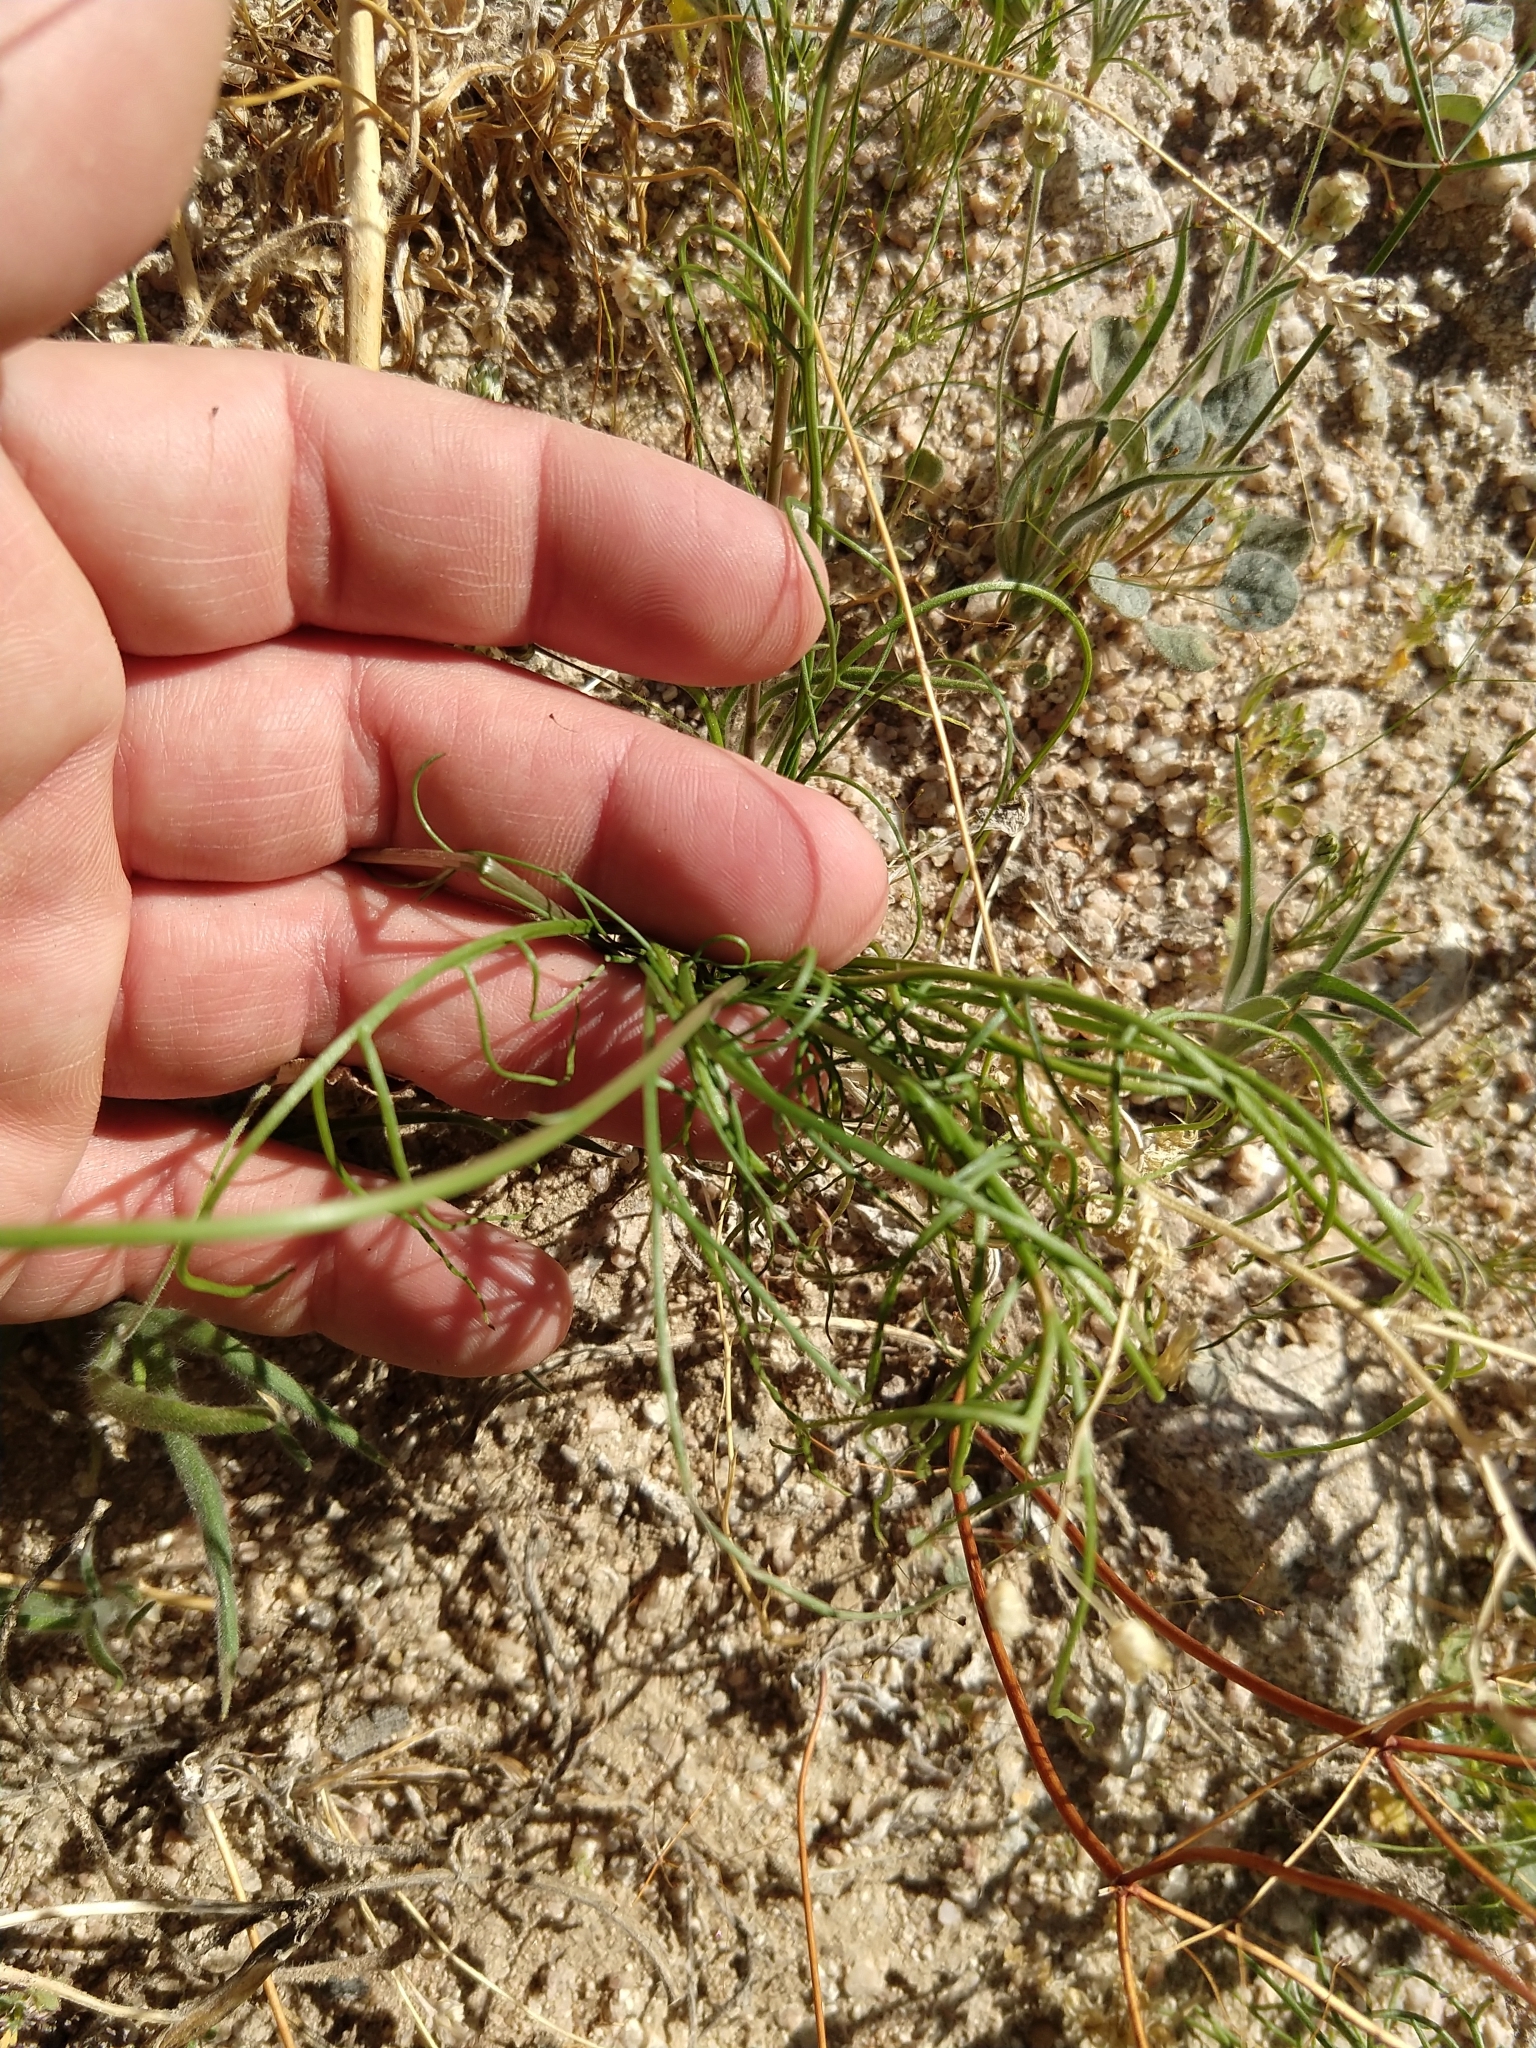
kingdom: Plantae
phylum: Tracheophyta
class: Magnoliopsida
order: Asterales
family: Asteraceae
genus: Malacothrix
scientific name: Malacothrix glabrata
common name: Smooth desert-dandelion
